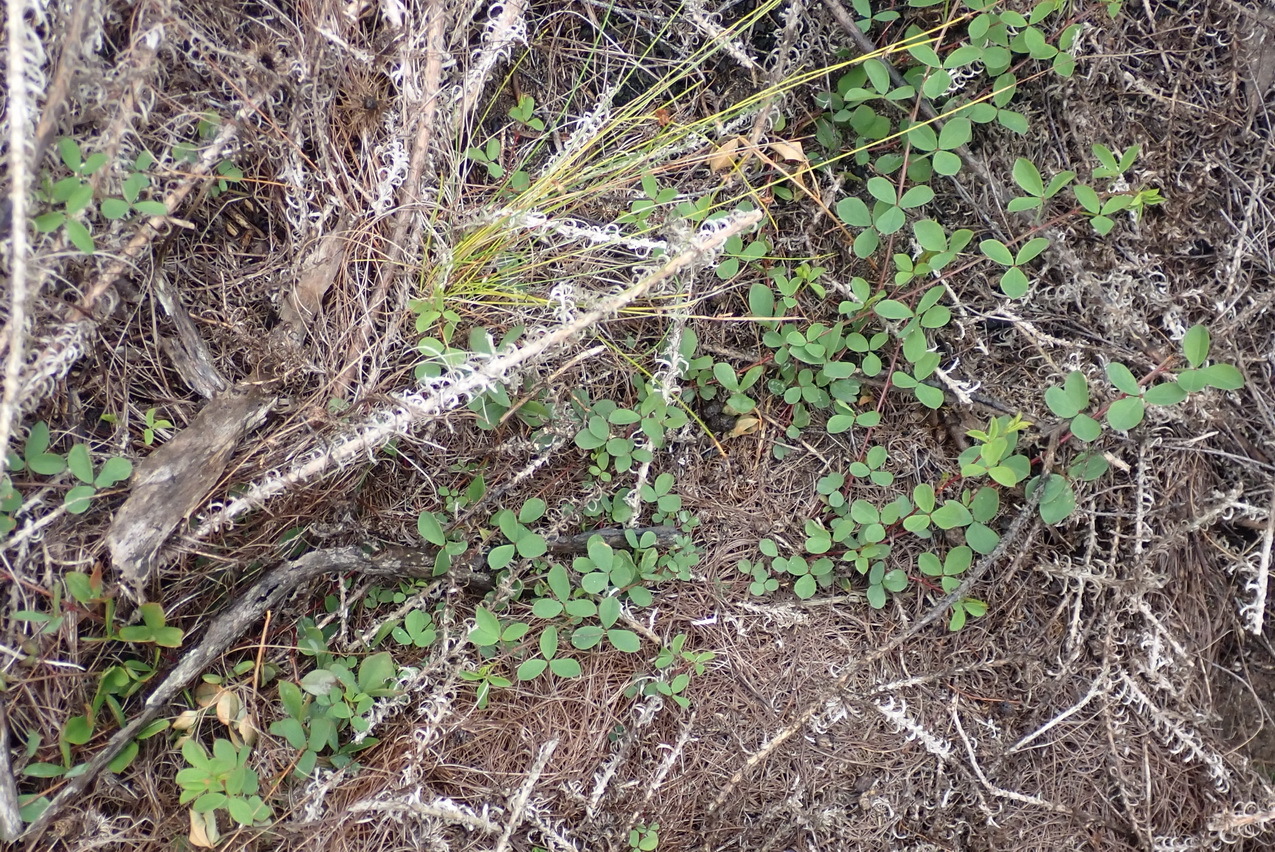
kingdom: Plantae
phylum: Tracheophyta
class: Magnoliopsida
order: Fabales
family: Fabaceae
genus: Indigofera
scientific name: Indigofera erecta
